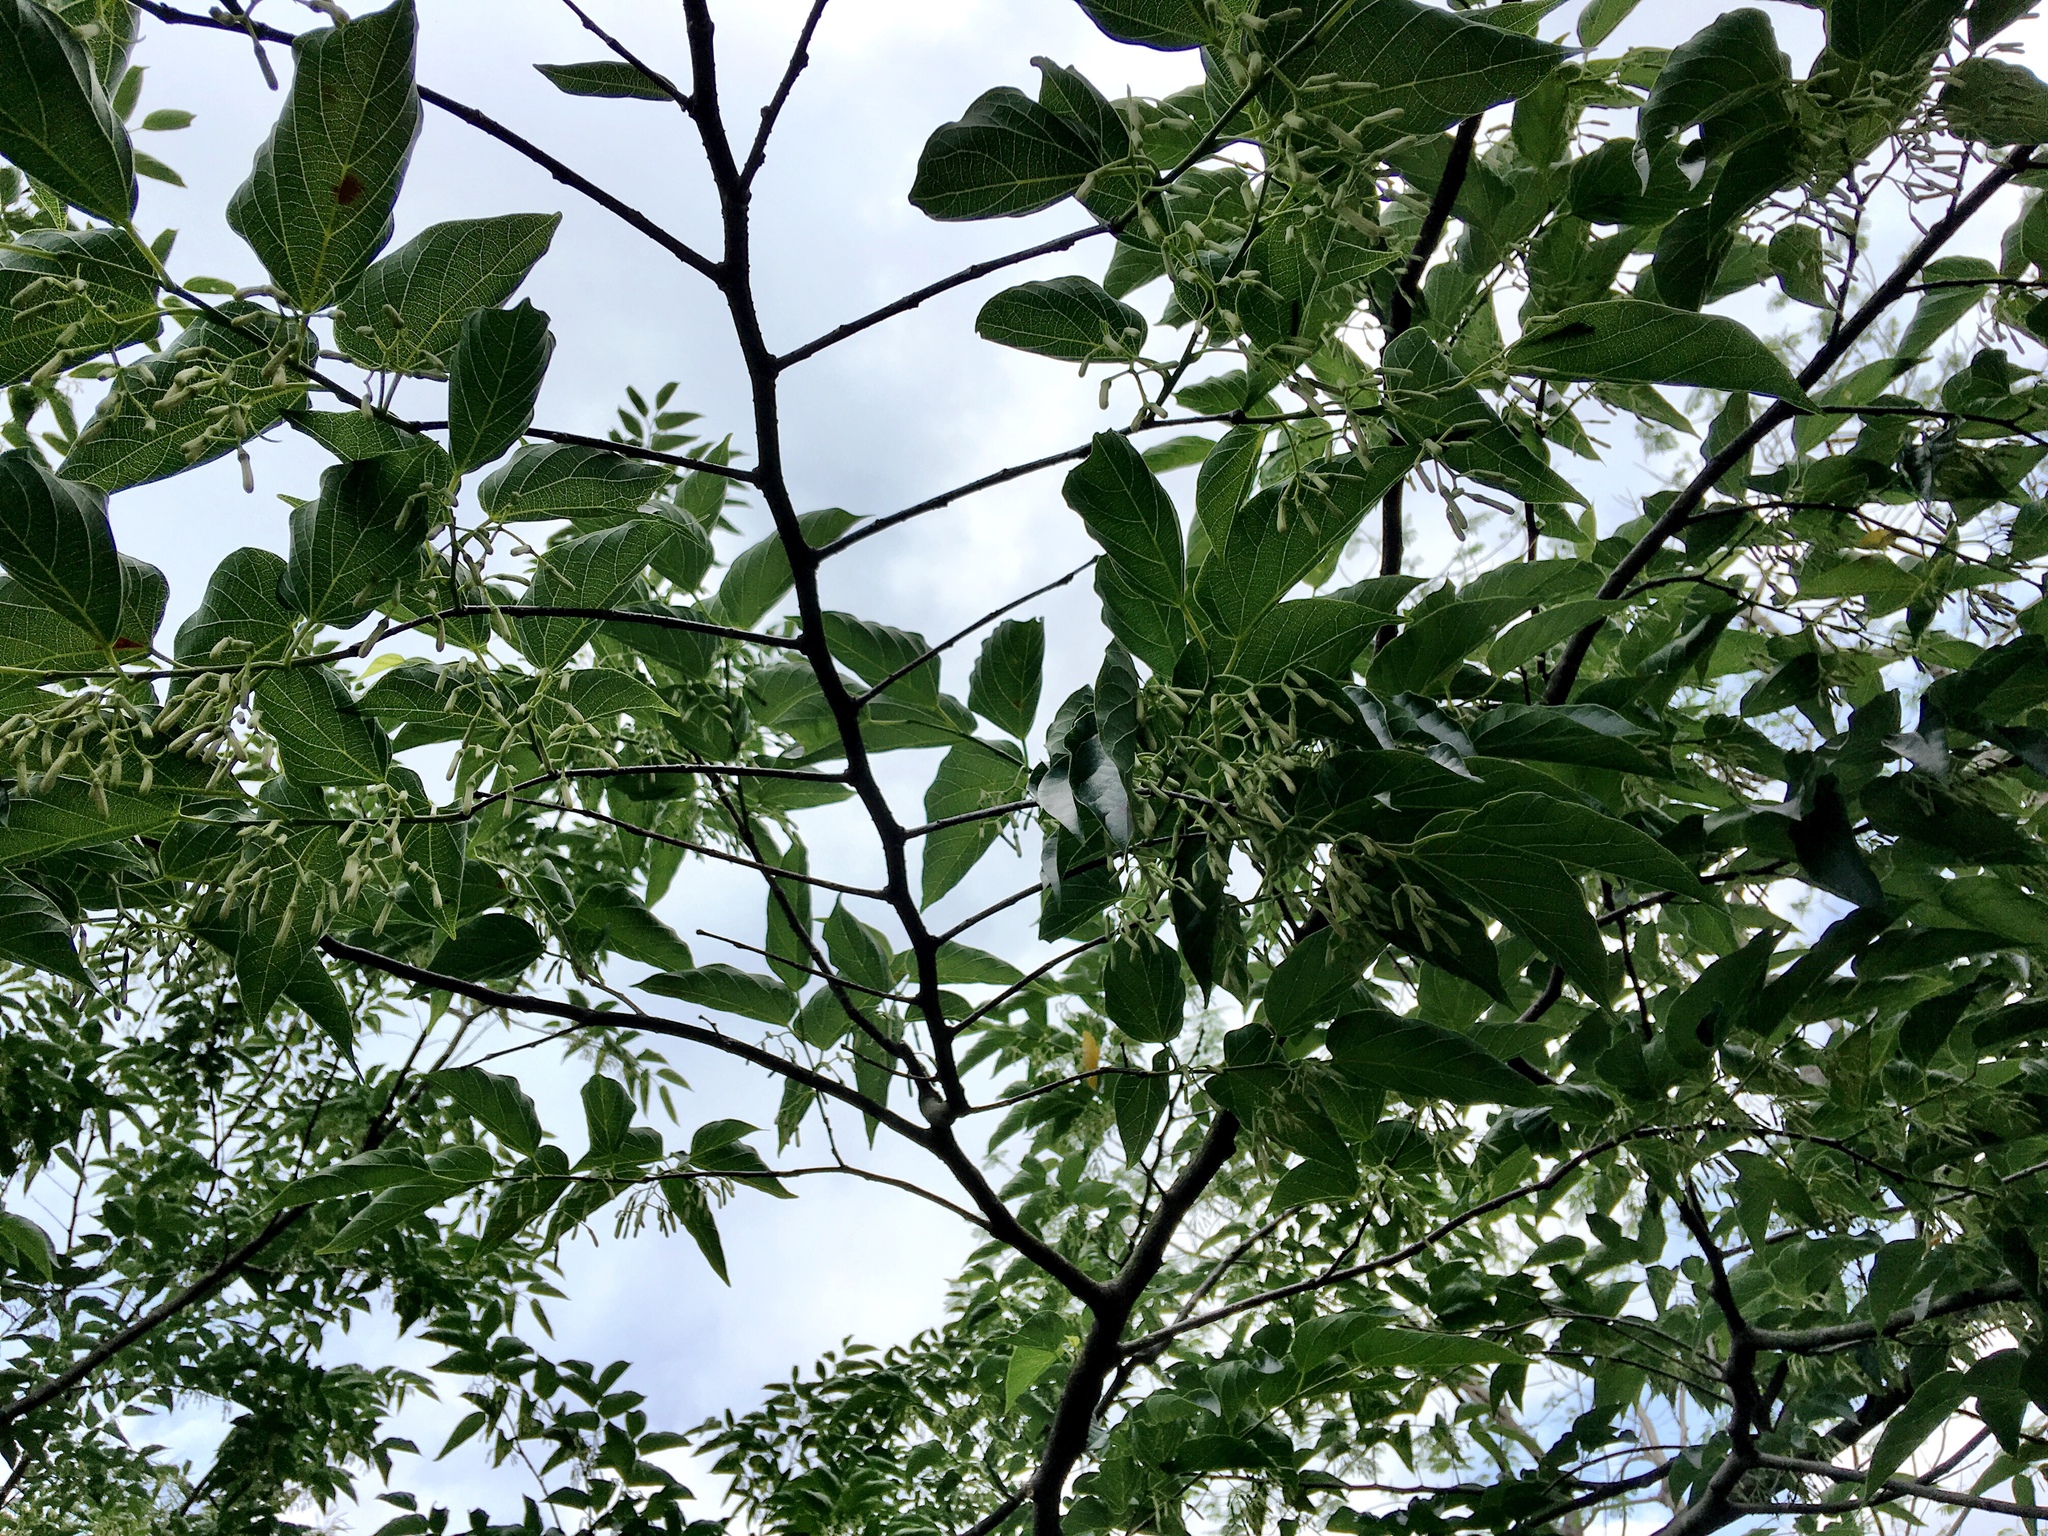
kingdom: Plantae
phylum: Tracheophyta
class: Magnoliopsida
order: Cornales
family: Cornaceae
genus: Alangium
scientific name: Alangium chinense
